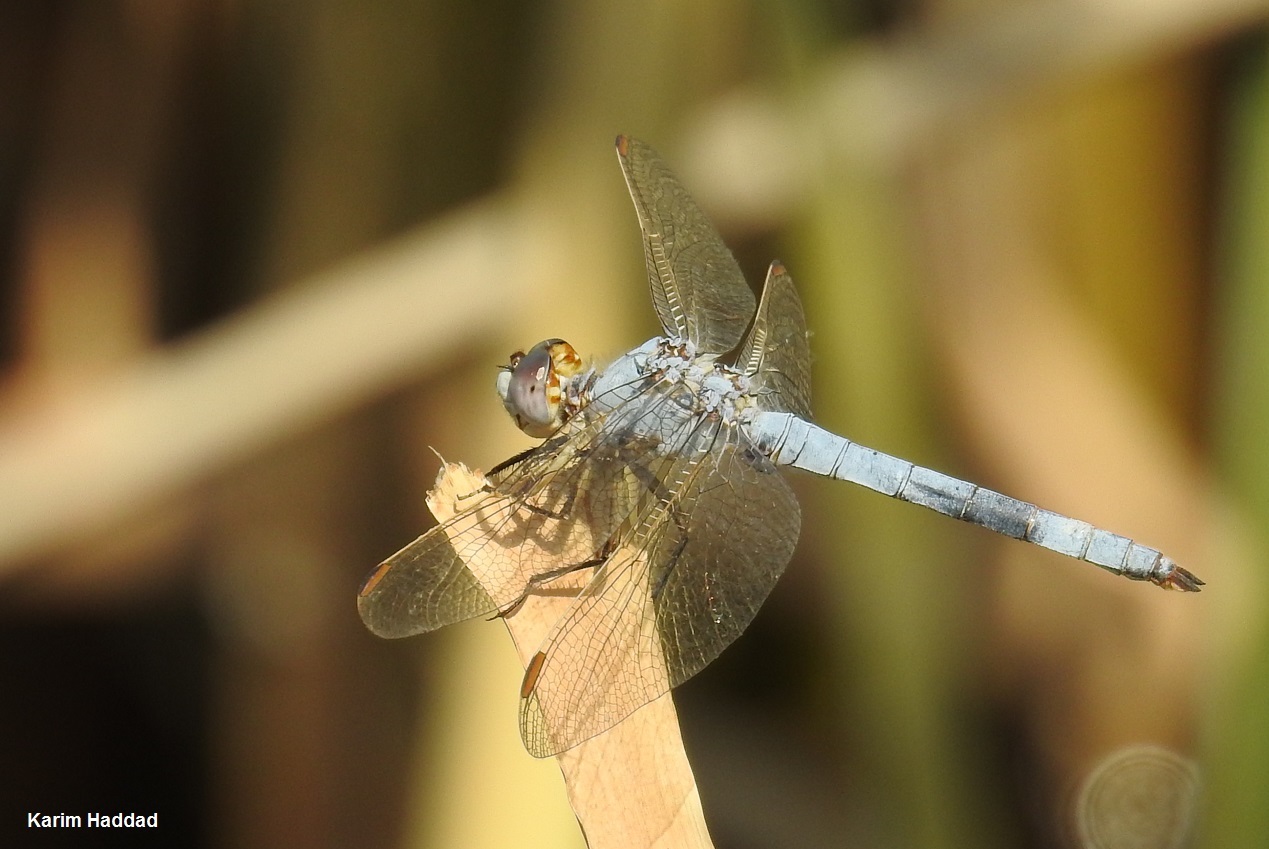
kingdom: Animalia
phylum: Arthropoda
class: Insecta
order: Odonata
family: Libellulidae
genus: Orthetrum
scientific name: Orthetrum nitidinerve
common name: Yellow-veined skimmer
